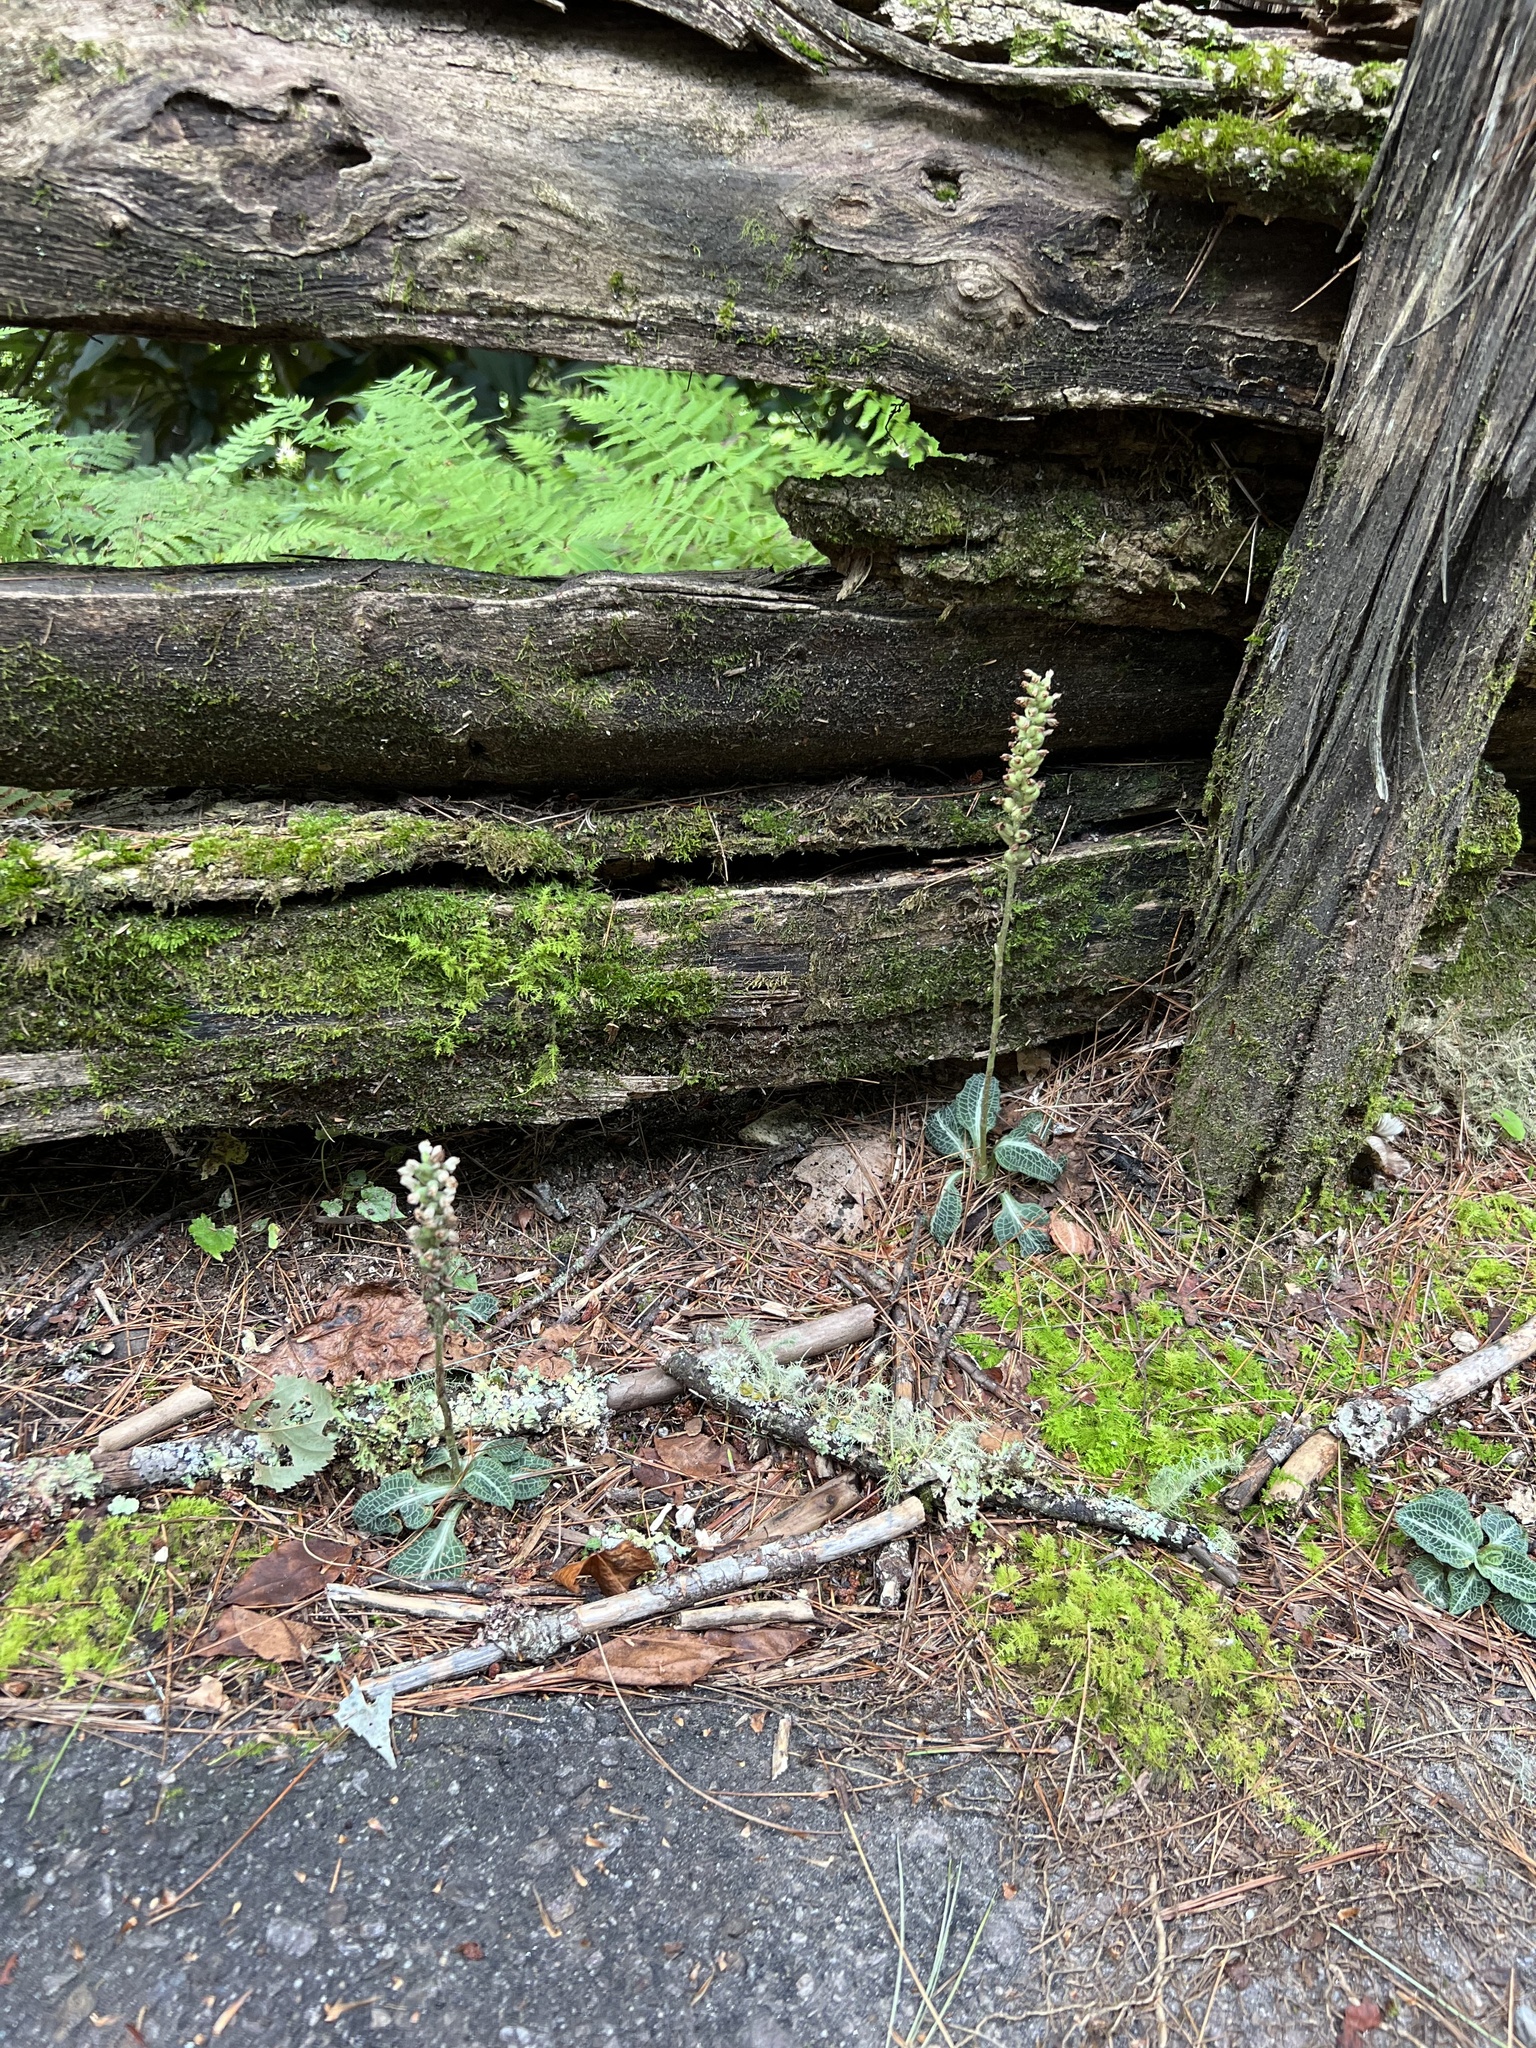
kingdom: Plantae
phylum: Tracheophyta
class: Liliopsida
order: Asparagales
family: Orchidaceae
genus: Goodyera
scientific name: Goodyera pubescens
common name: Downy rattlesnake-plantain
